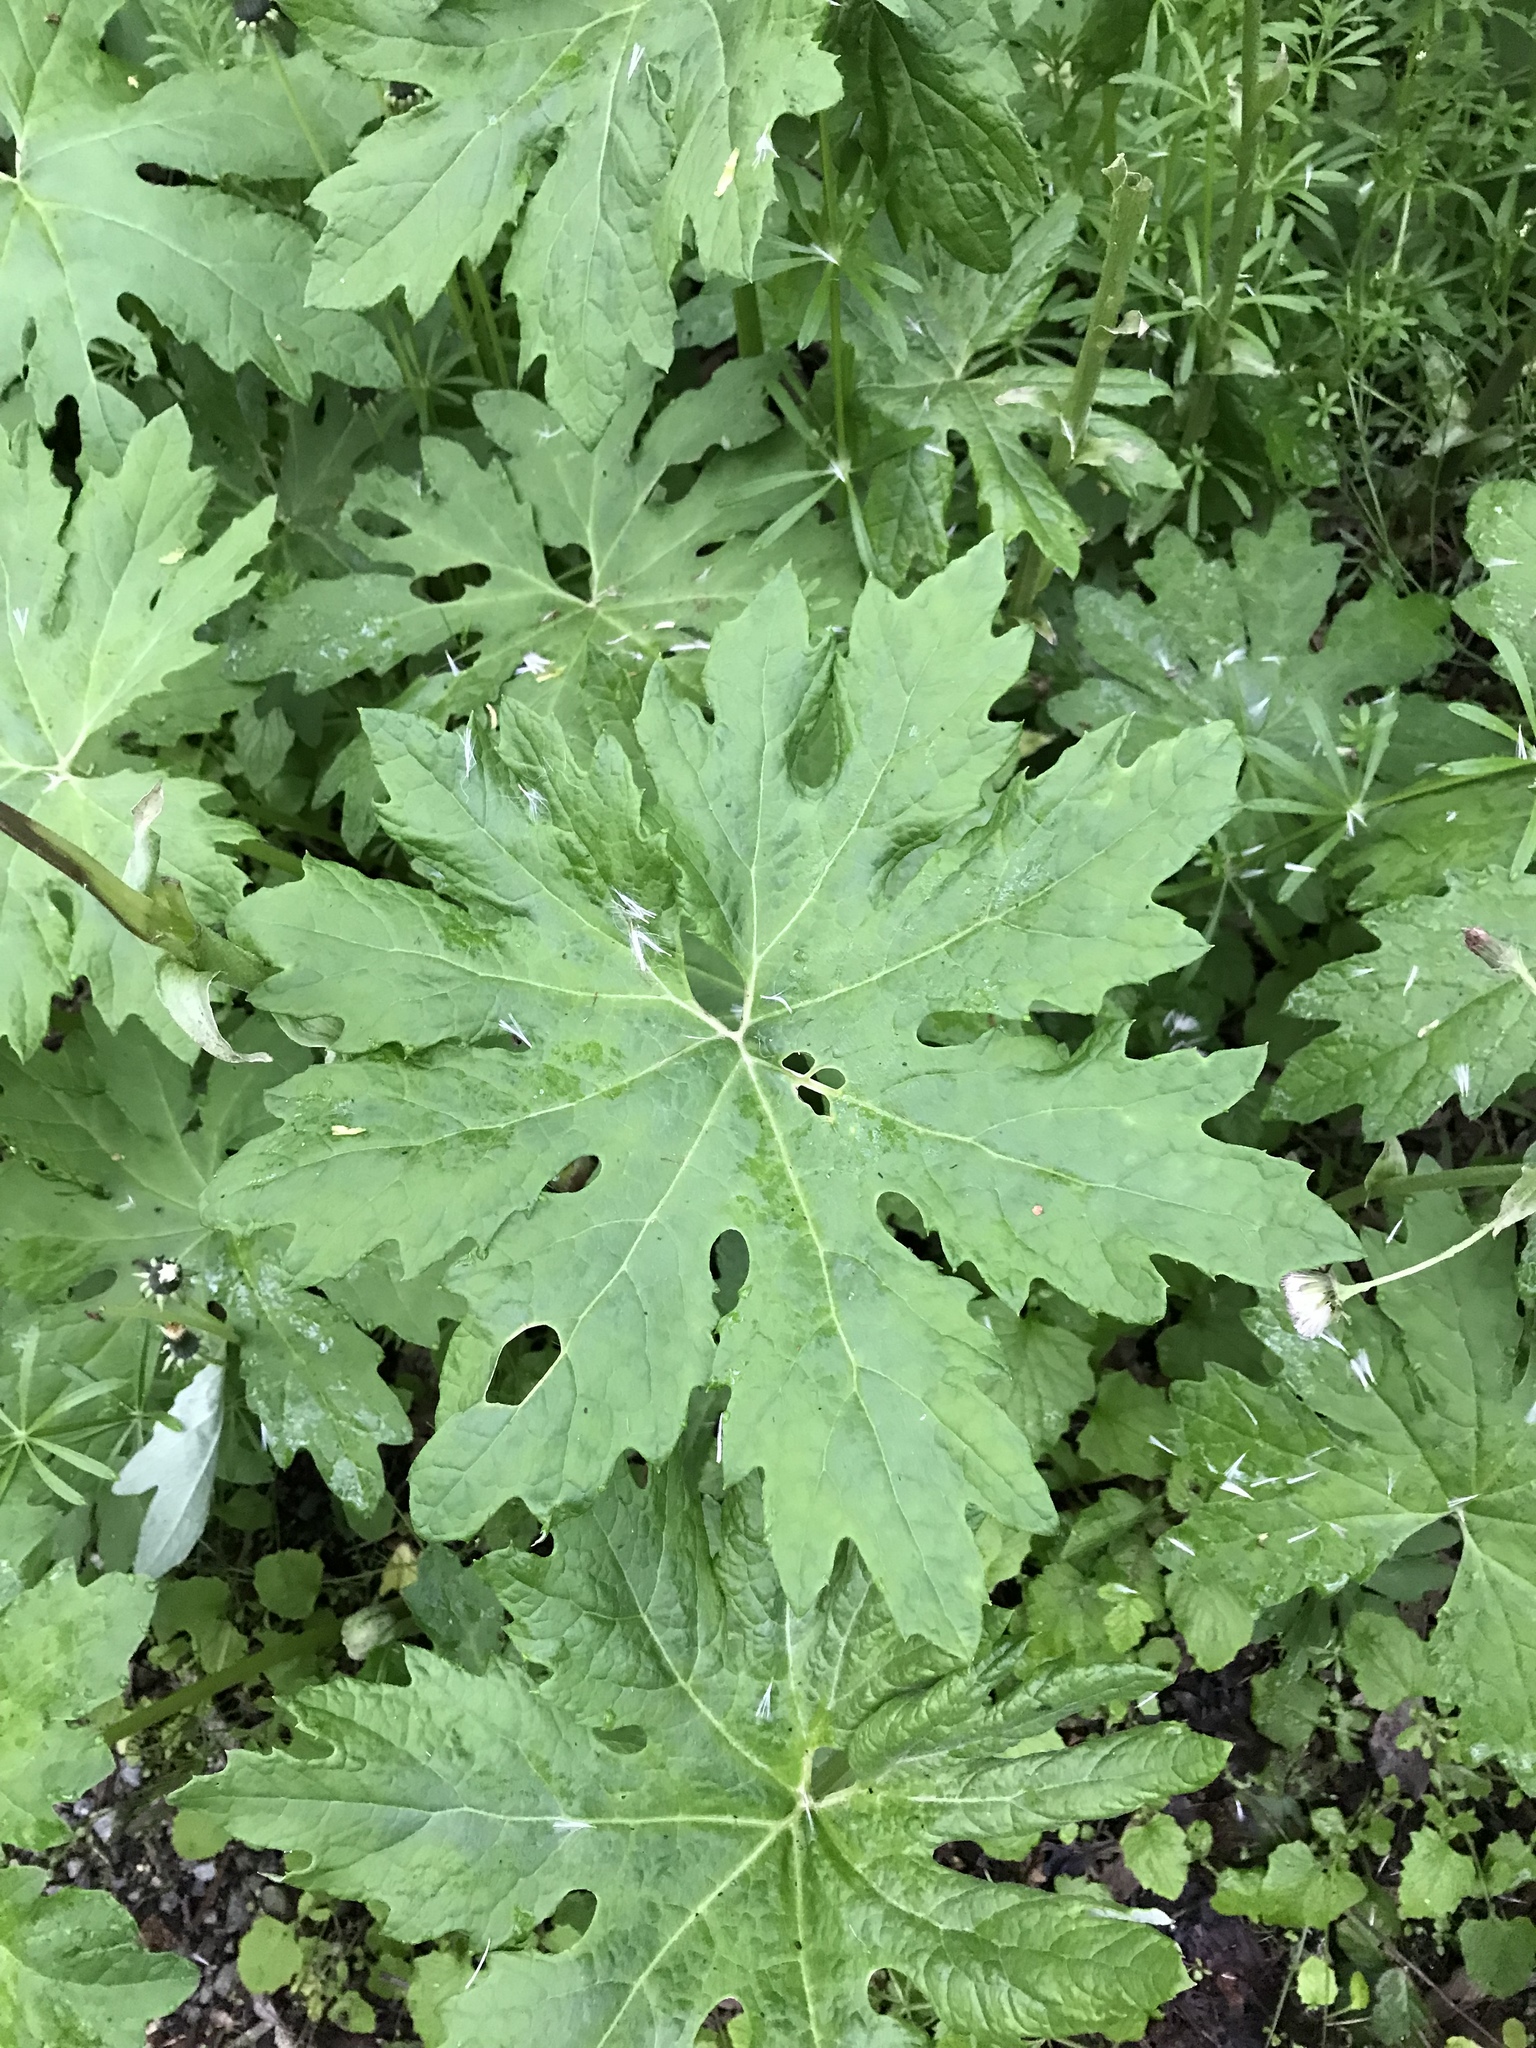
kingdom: Plantae
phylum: Tracheophyta
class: Magnoliopsida
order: Asterales
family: Asteraceae
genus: Petasites
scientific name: Petasites frigidus
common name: Arctic butterbur
